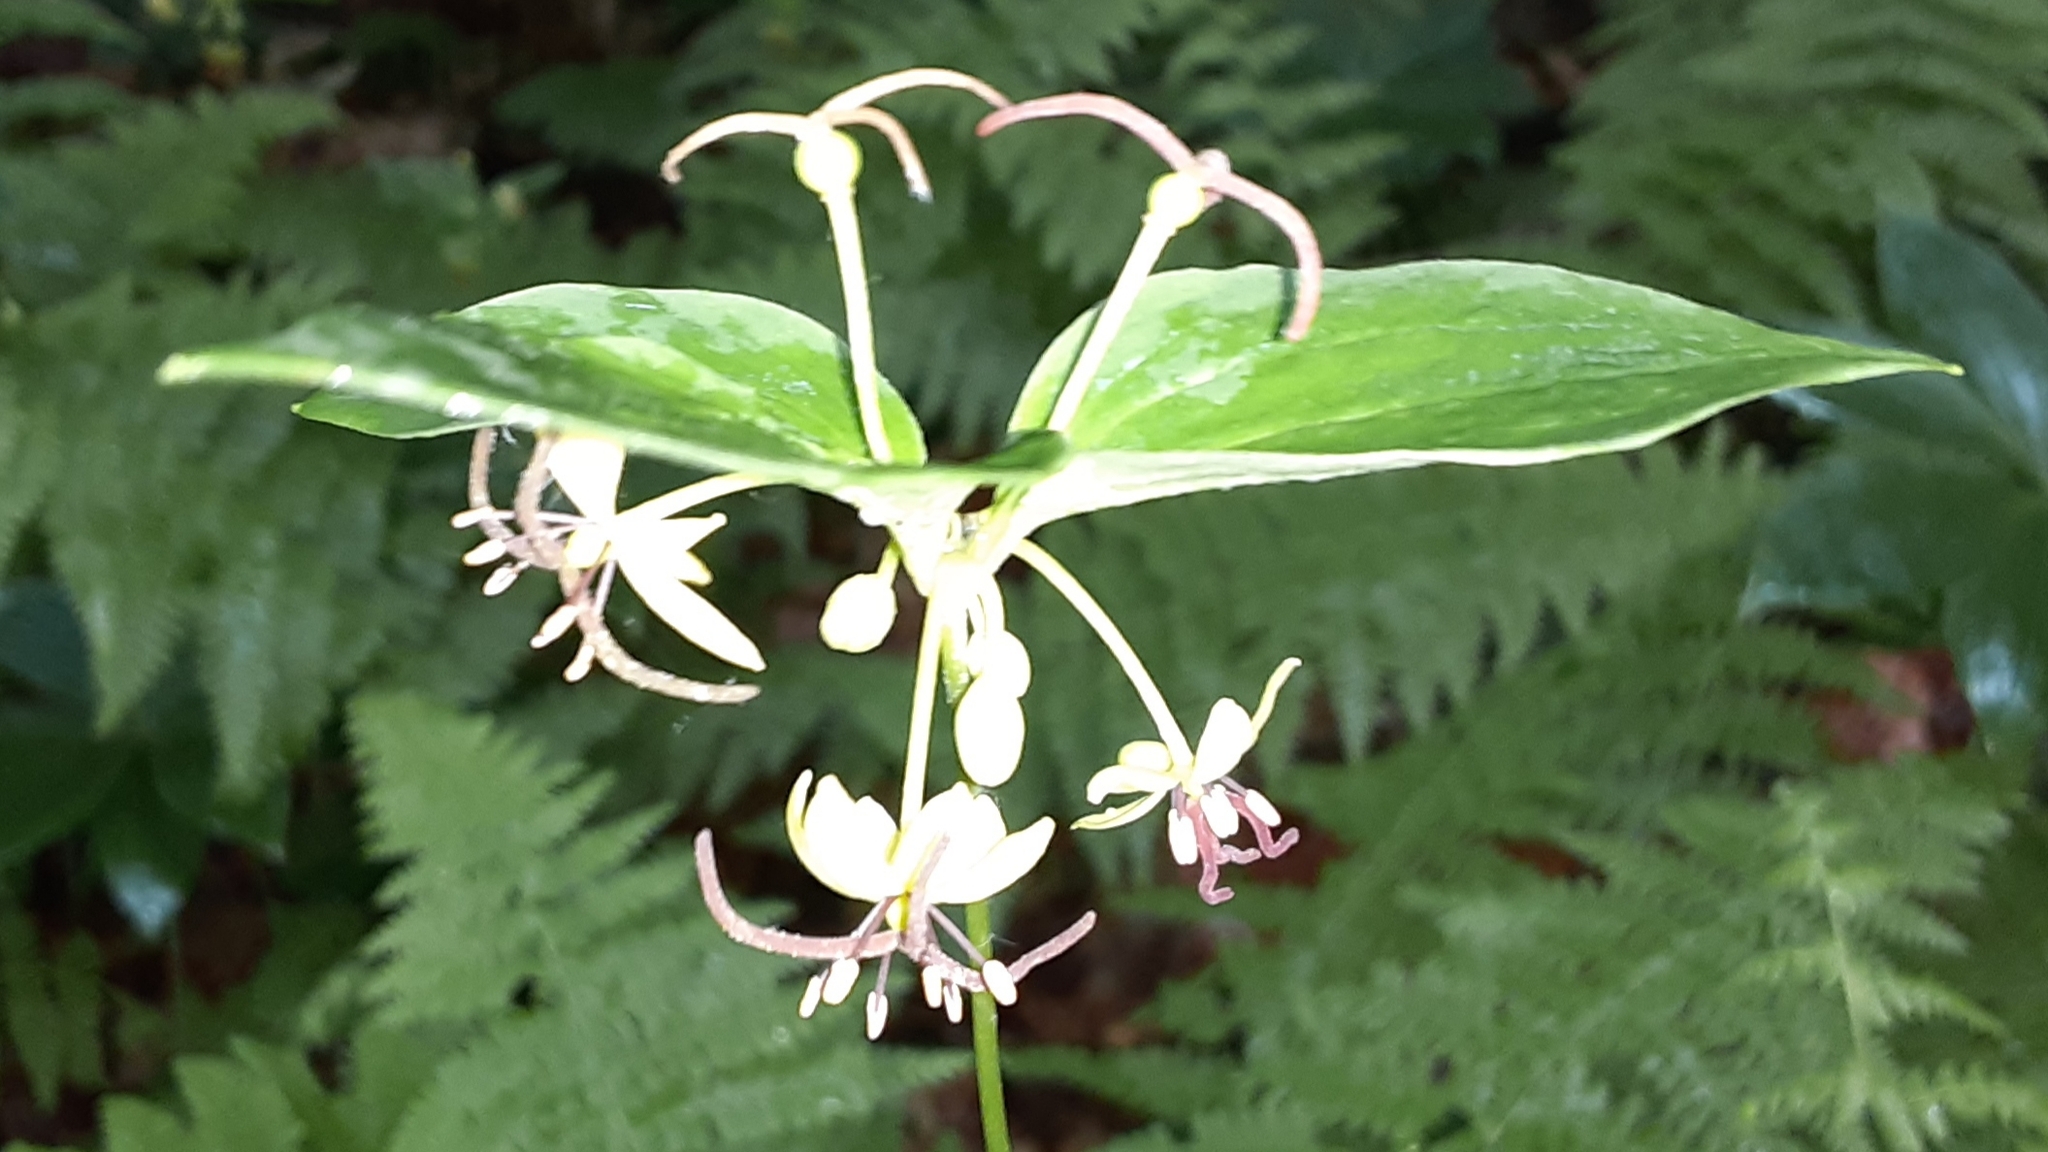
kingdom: Plantae
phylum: Tracheophyta
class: Liliopsida
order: Liliales
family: Liliaceae
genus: Medeola
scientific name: Medeola virginiana
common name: Indian cucumber-root
